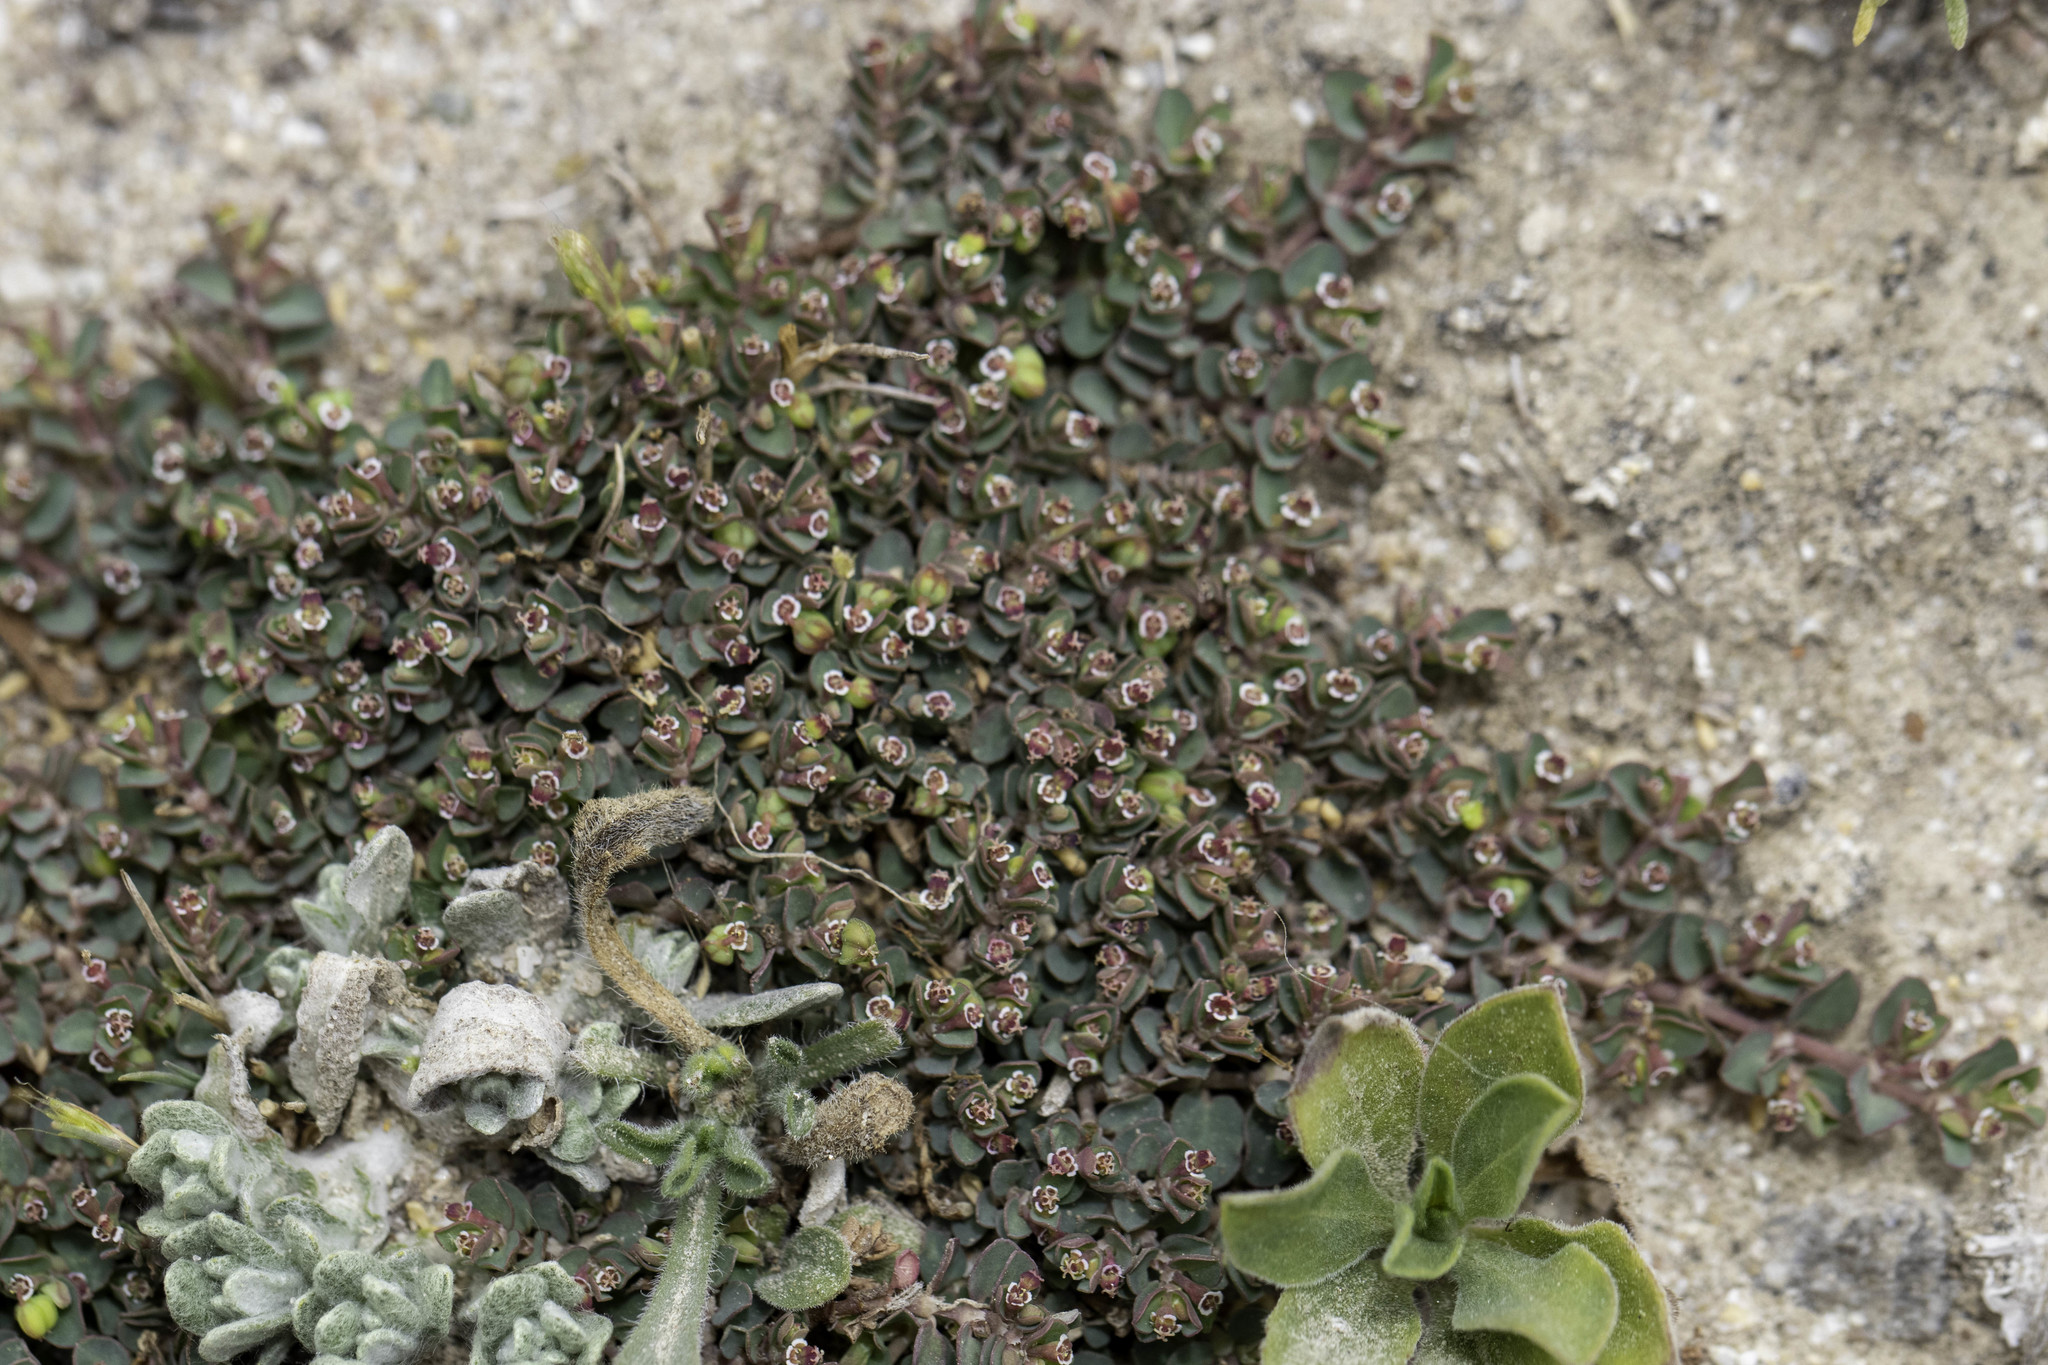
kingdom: Plantae
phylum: Tracheophyta
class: Magnoliopsida
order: Malpighiales
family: Euphorbiaceae
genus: Euphorbia
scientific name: Euphorbia serpens
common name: Matted sandmat
